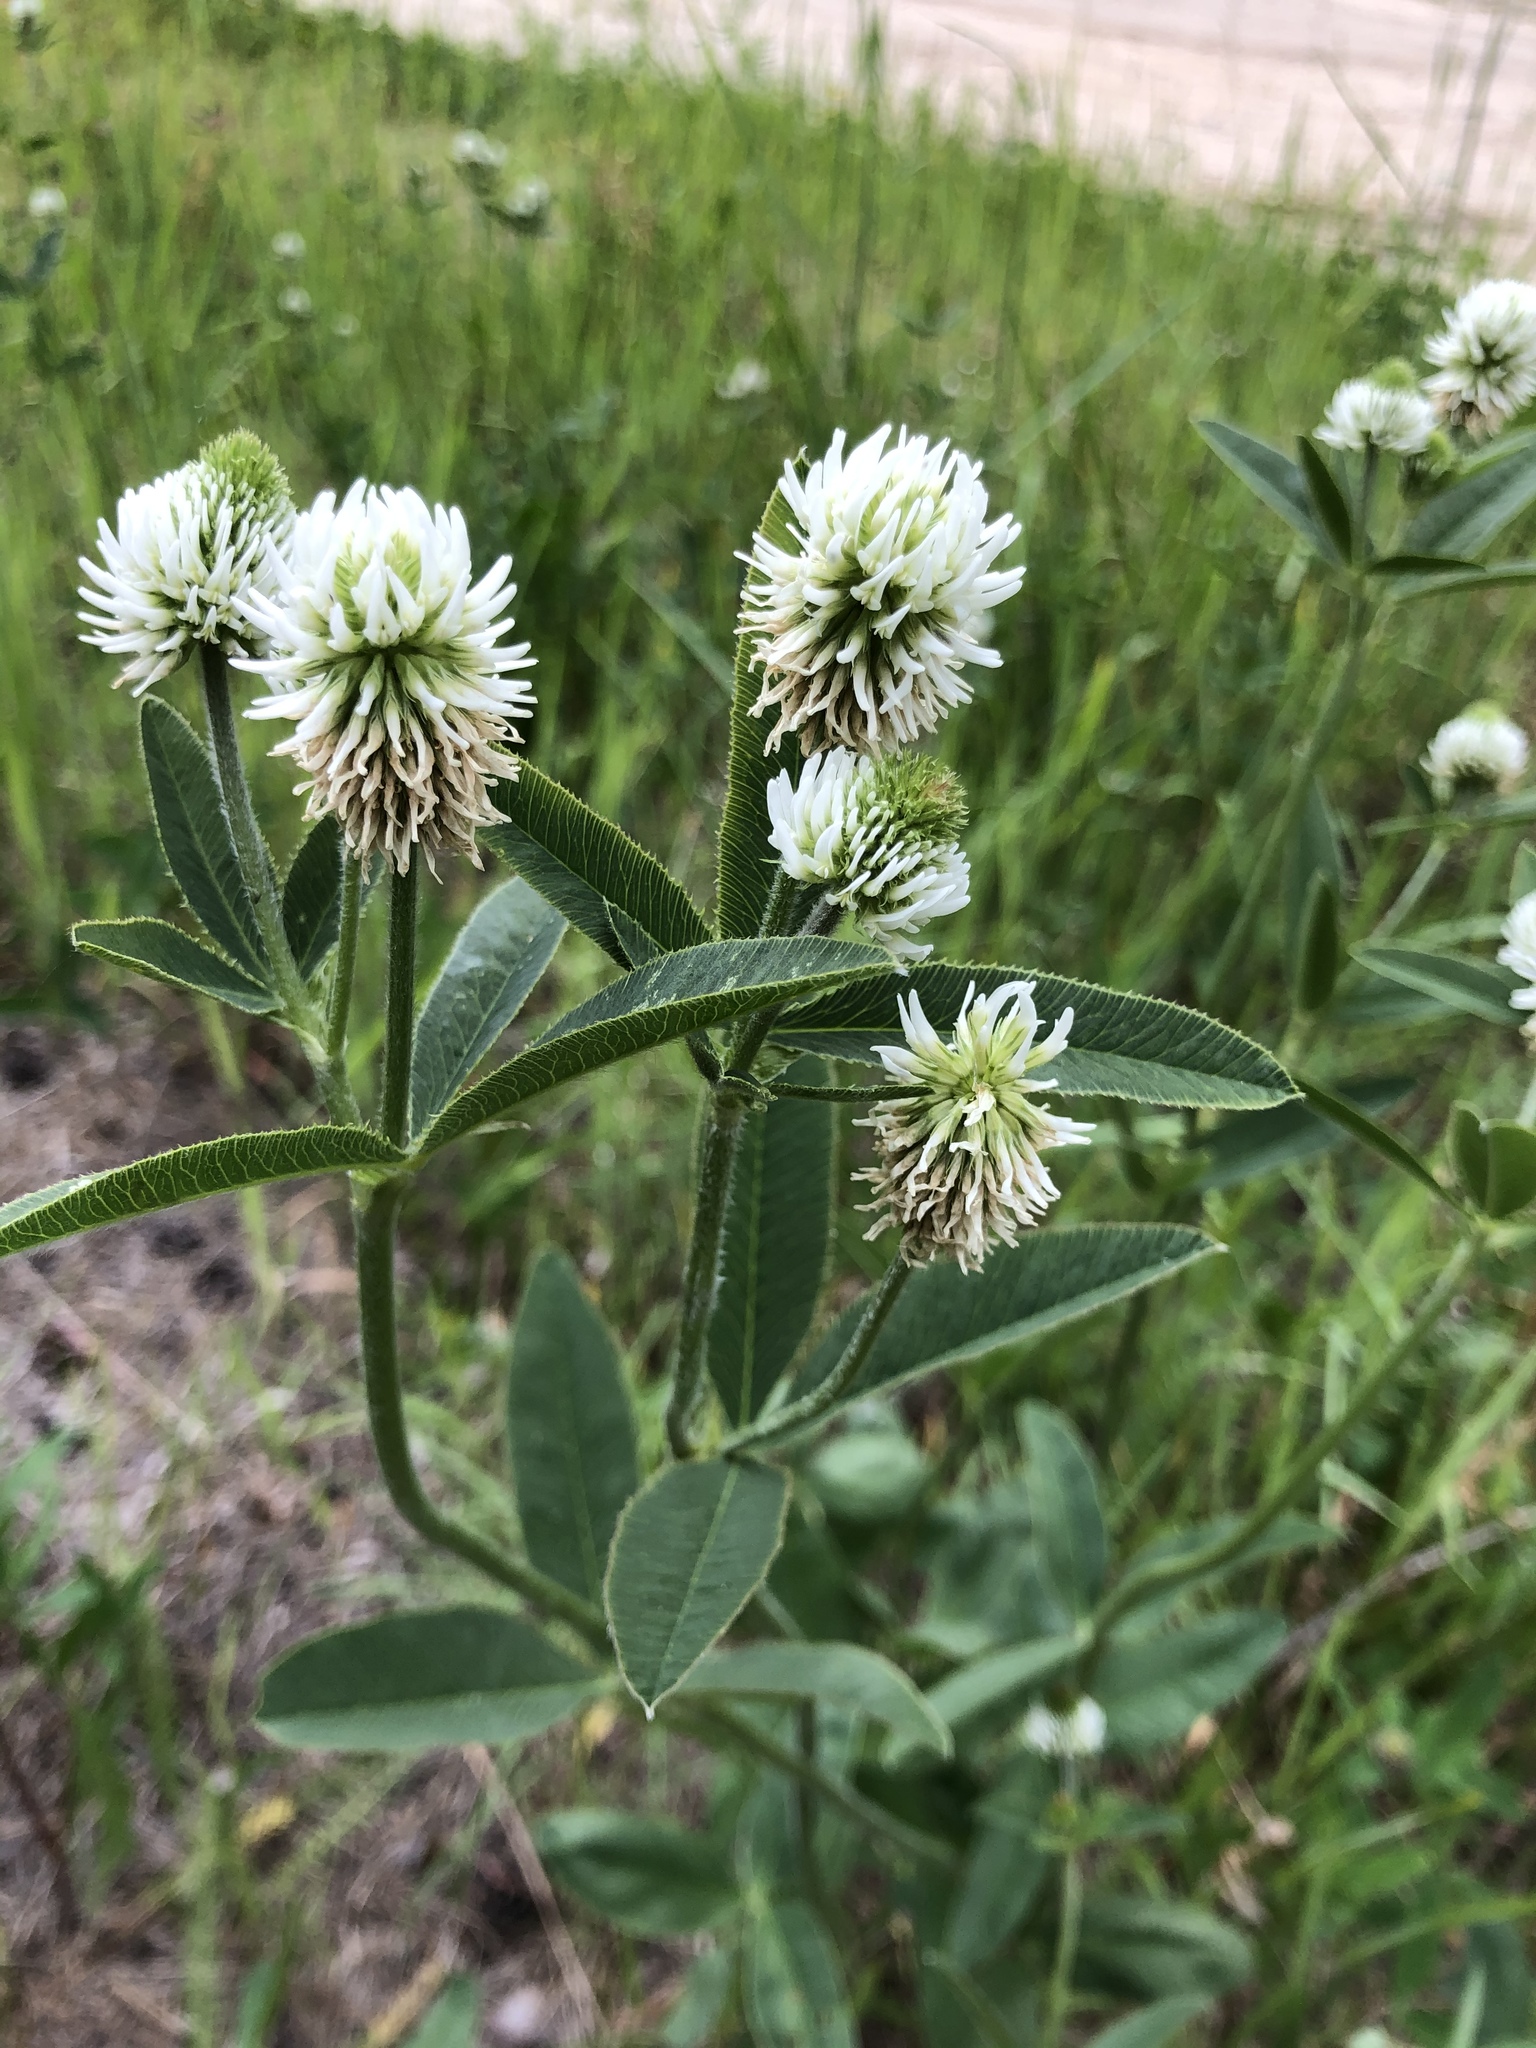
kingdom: Plantae
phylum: Tracheophyta
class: Magnoliopsida
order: Fabales
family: Fabaceae
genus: Trifolium
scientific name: Trifolium montanum
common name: Mountain clover
